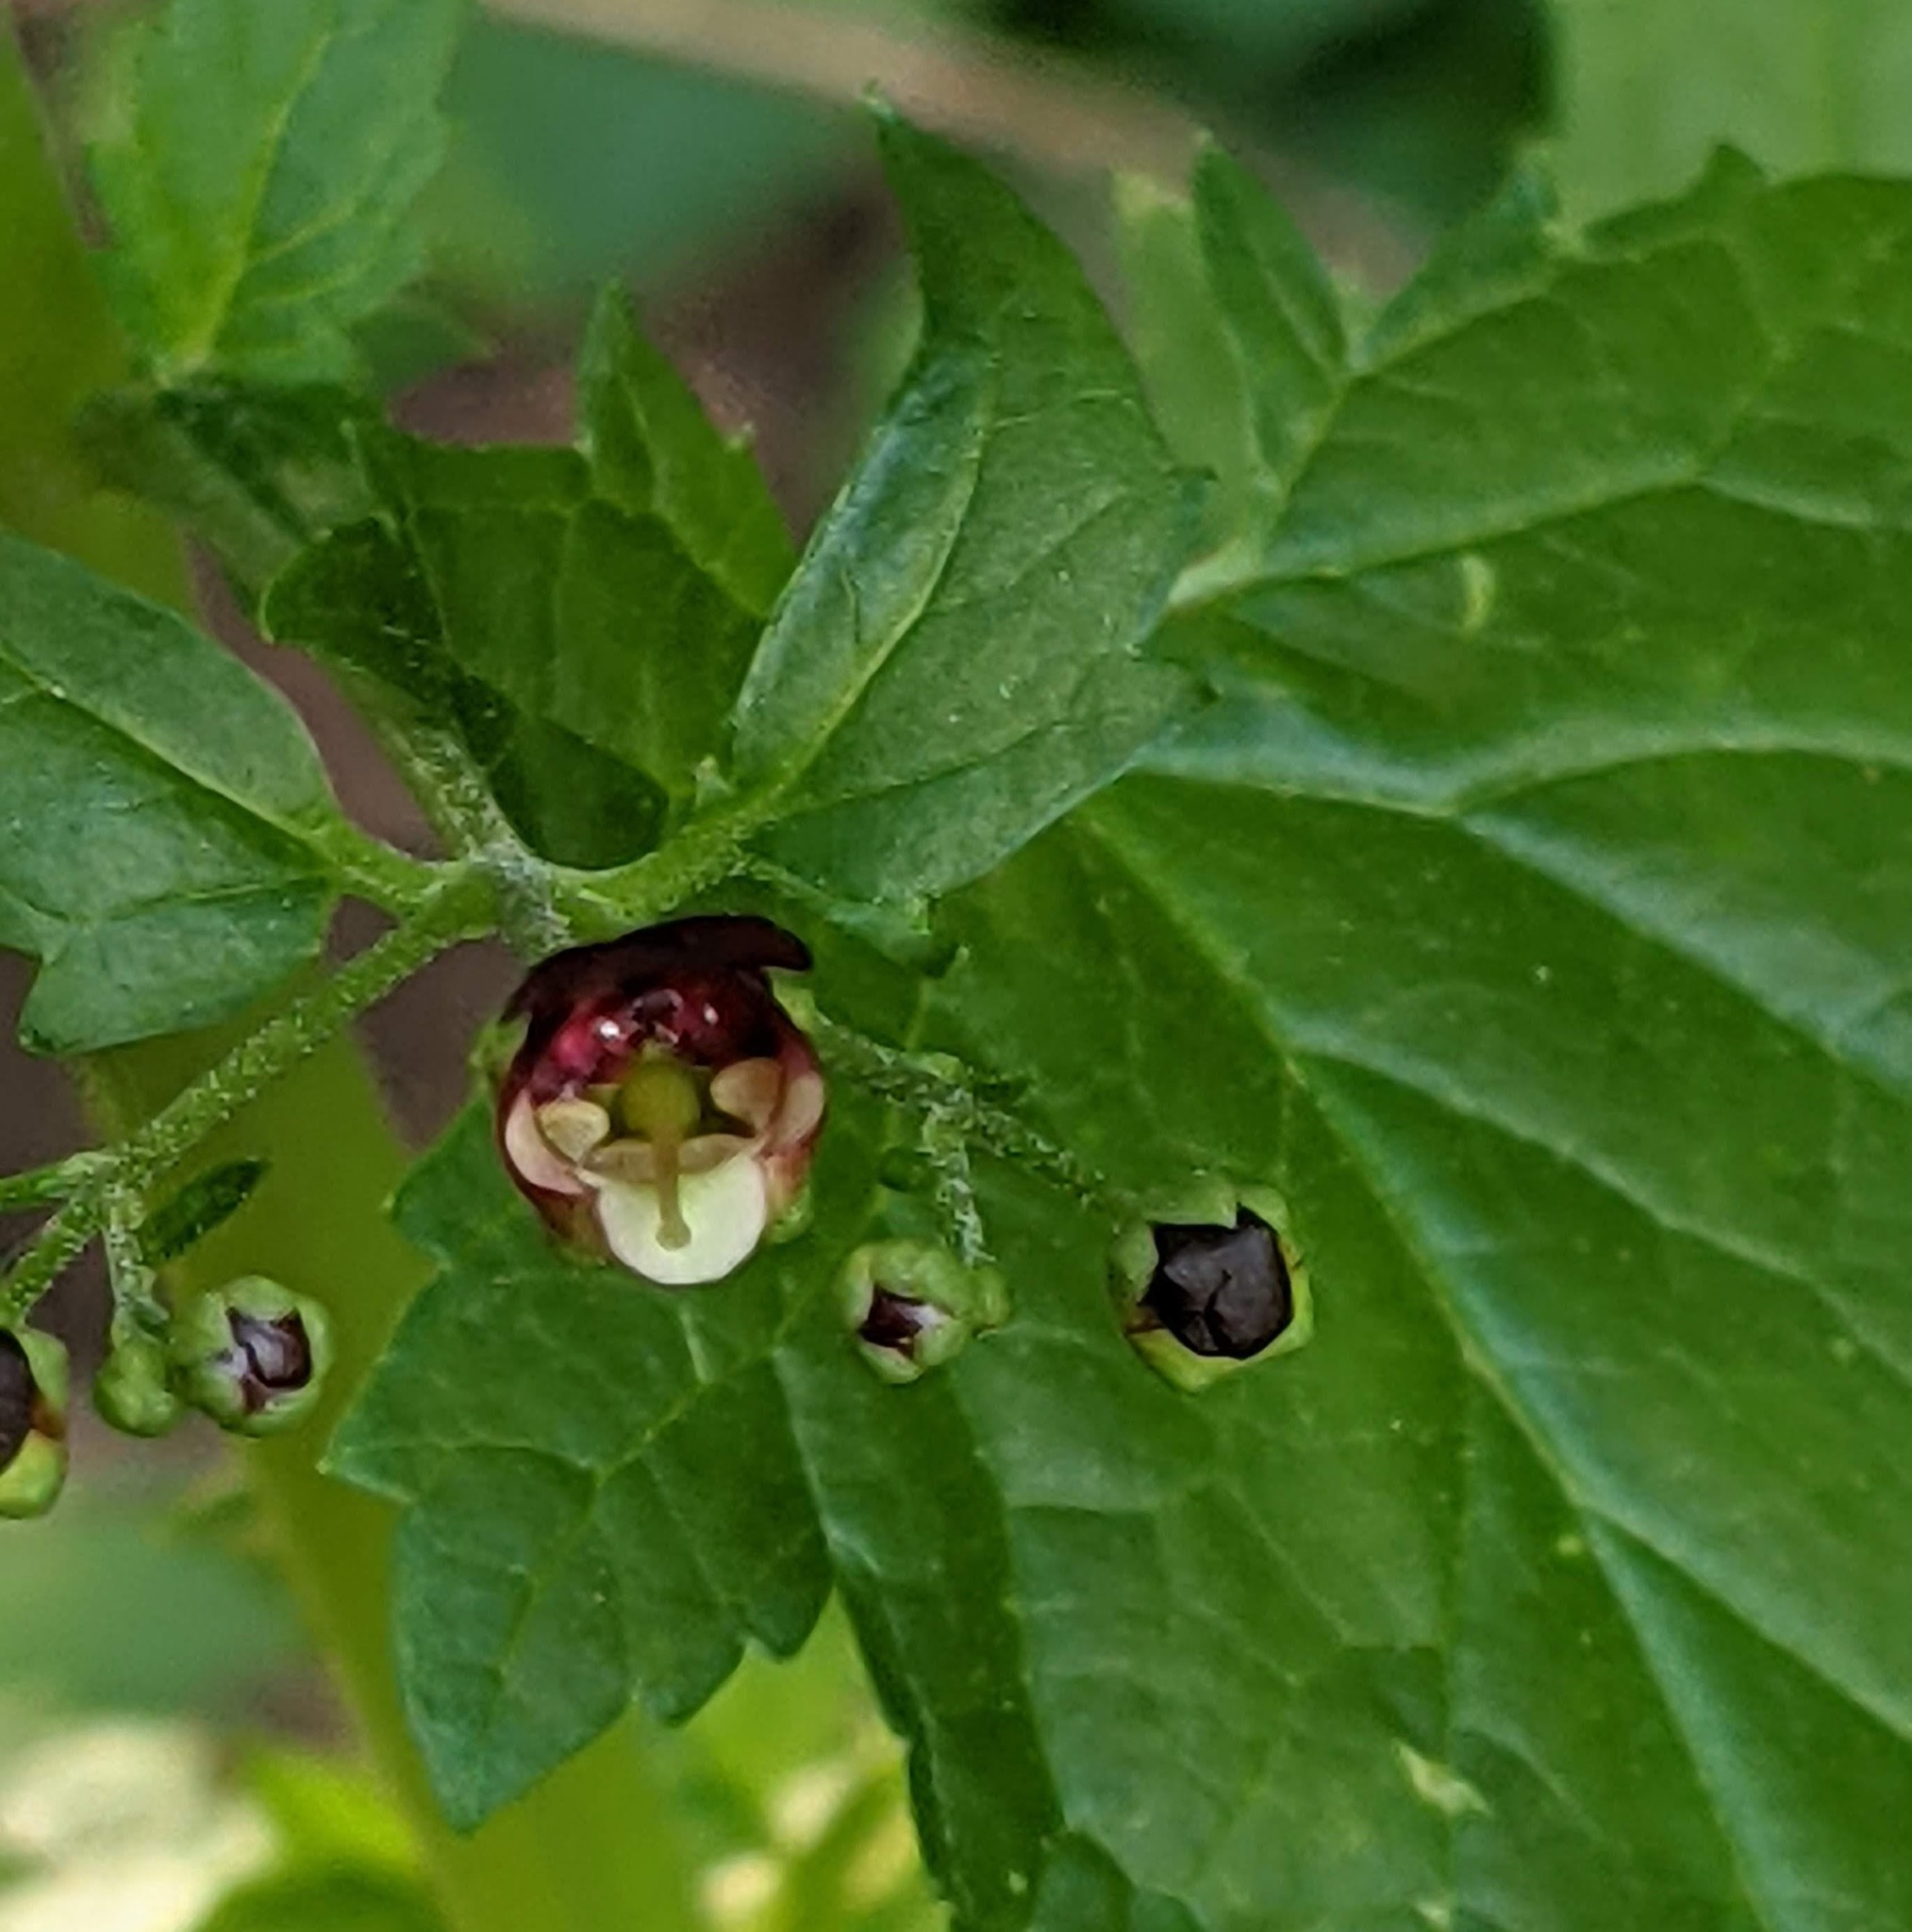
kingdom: Plantae
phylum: Tracheophyta
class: Magnoliopsida
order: Lamiales
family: Scrophulariaceae
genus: Scrophularia
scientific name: Scrophularia californica
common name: California figwort
